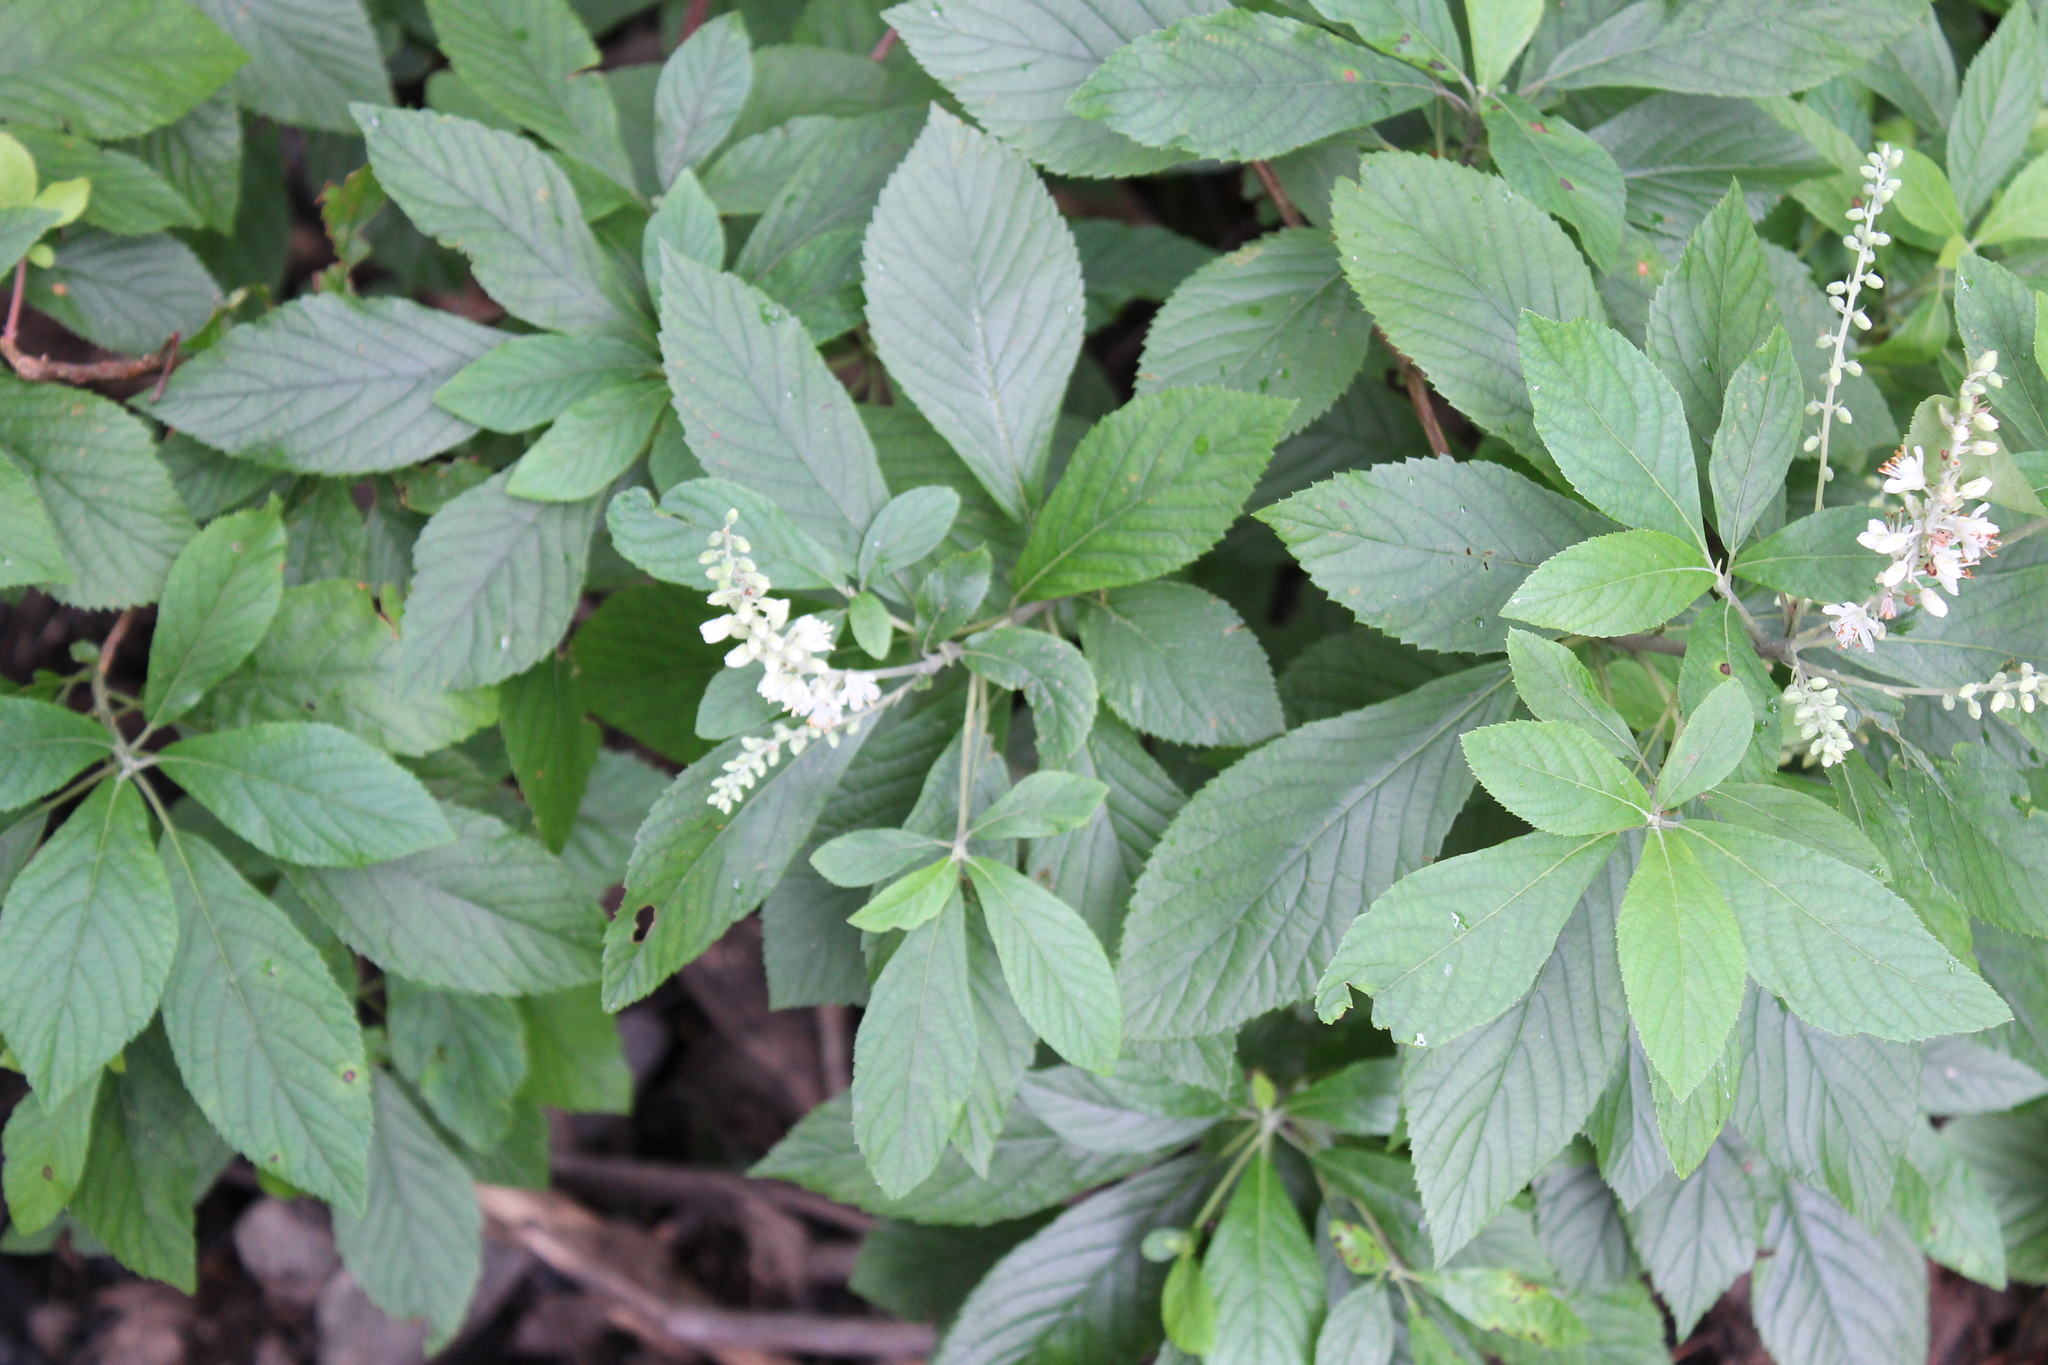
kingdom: Plantae
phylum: Tracheophyta
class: Magnoliopsida
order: Ericales
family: Clethraceae
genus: Clethra
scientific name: Clethra alnifolia
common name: Sweet pepperbush
